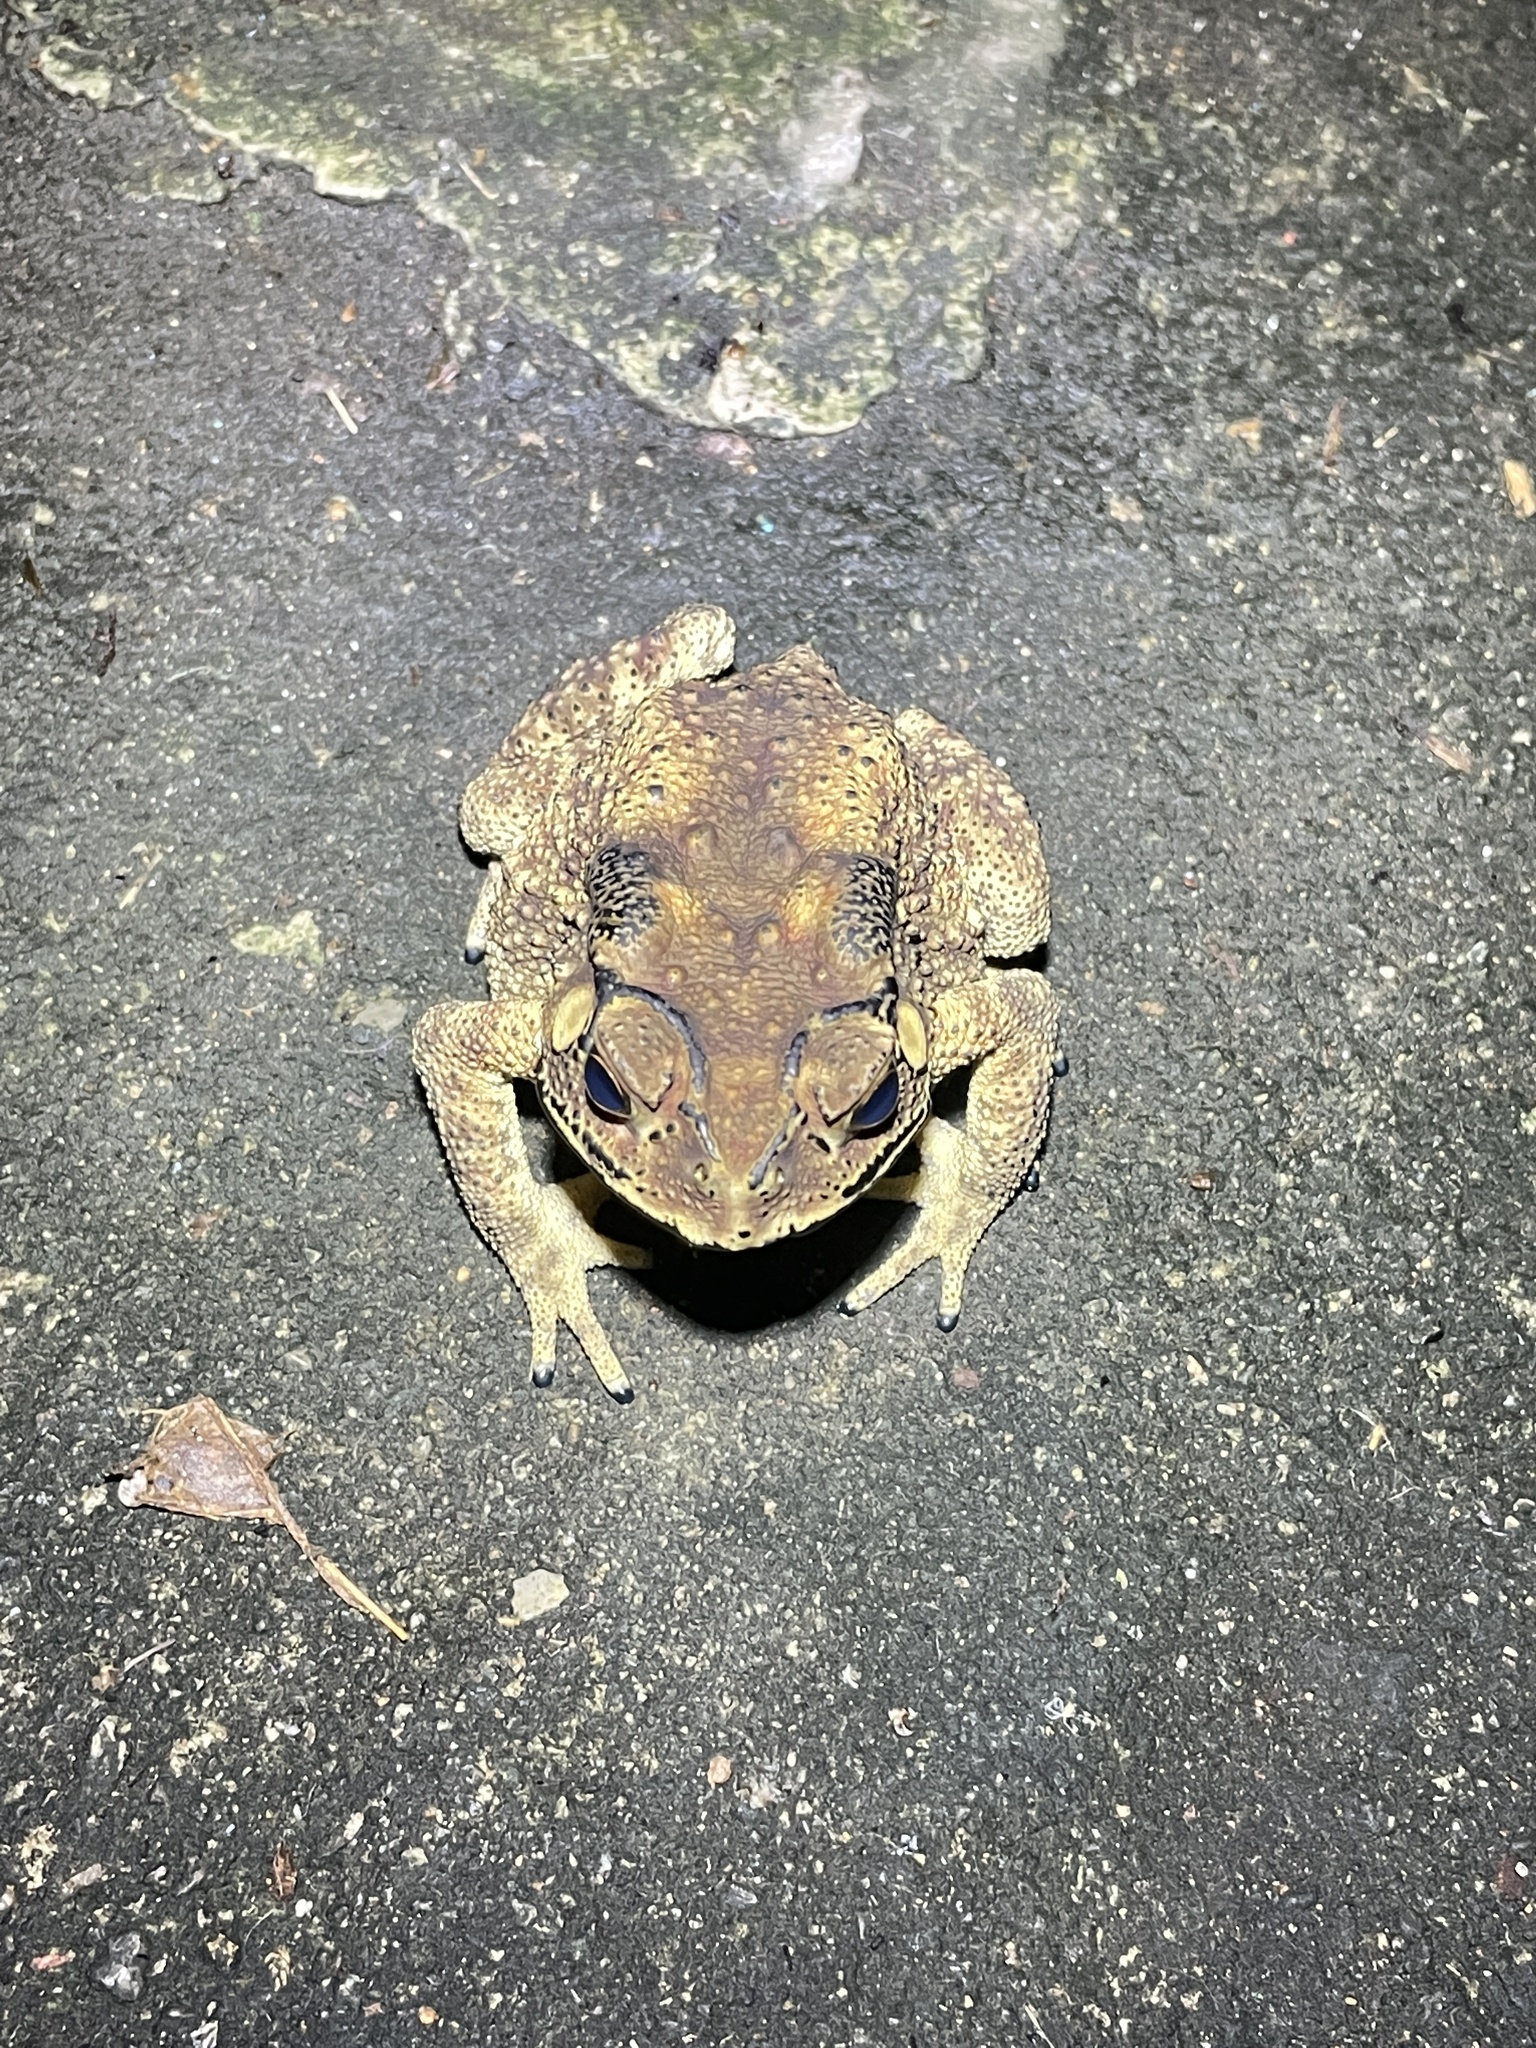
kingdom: Animalia
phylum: Chordata
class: Amphibia
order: Anura
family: Bufonidae
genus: Duttaphrynus
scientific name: Duttaphrynus melanostictus
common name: Common sunda toad
